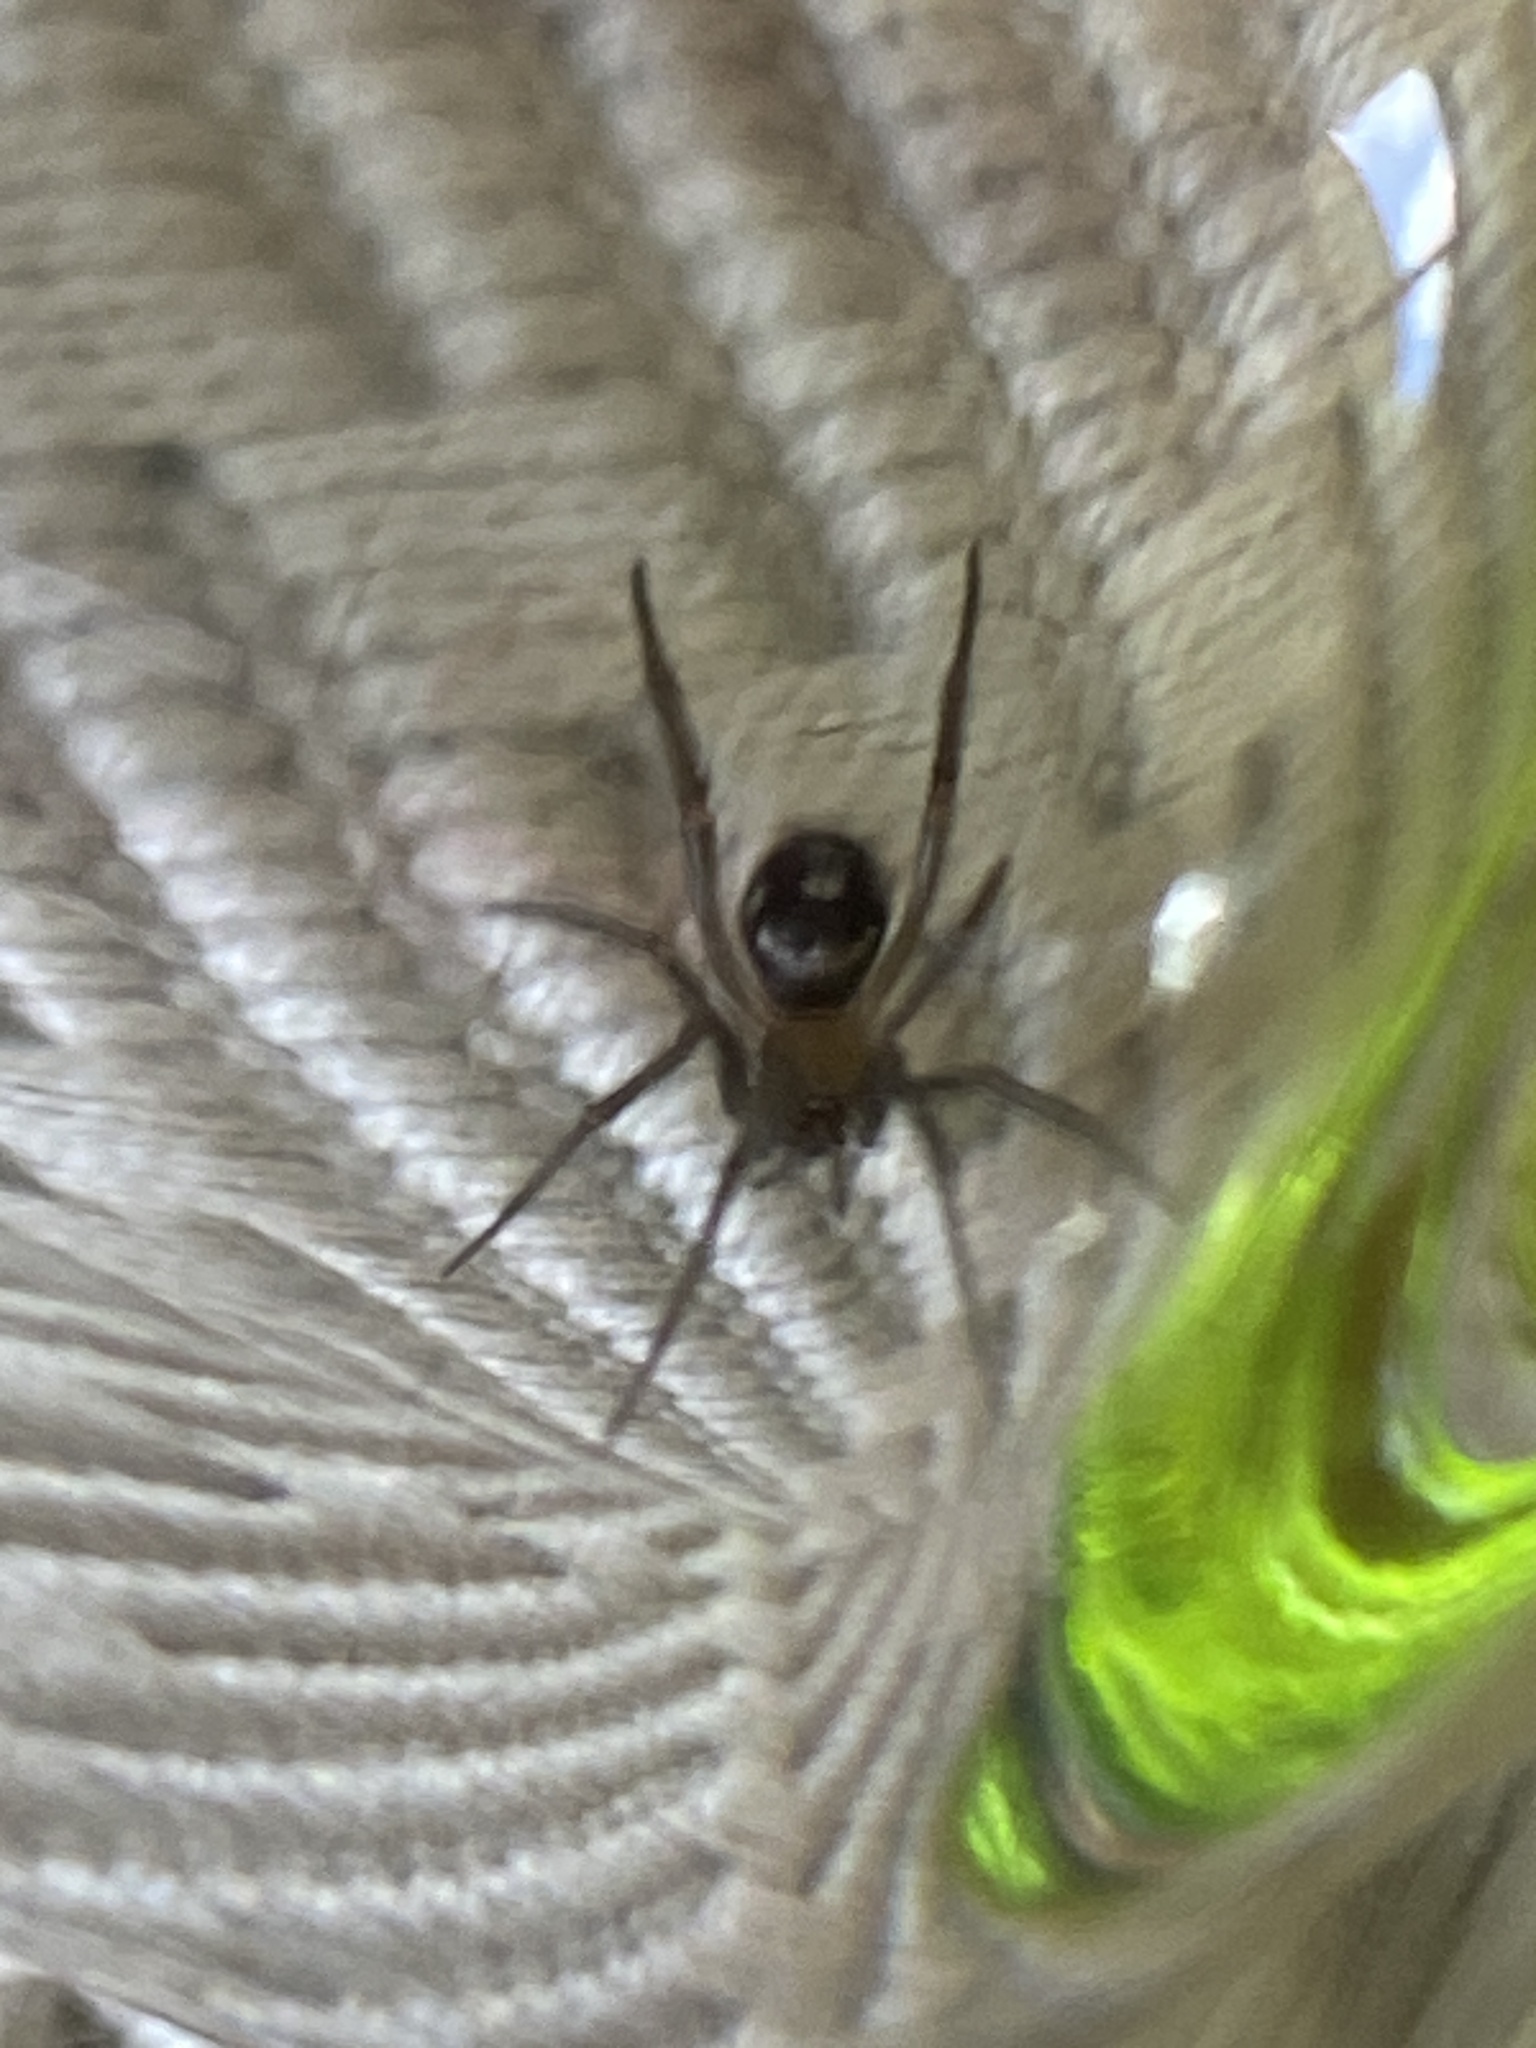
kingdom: Animalia
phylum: Arthropoda
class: Arachnida
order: Araneae
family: Theridiidae
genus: Steatoda
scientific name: Steatoda grossa
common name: False black widow
